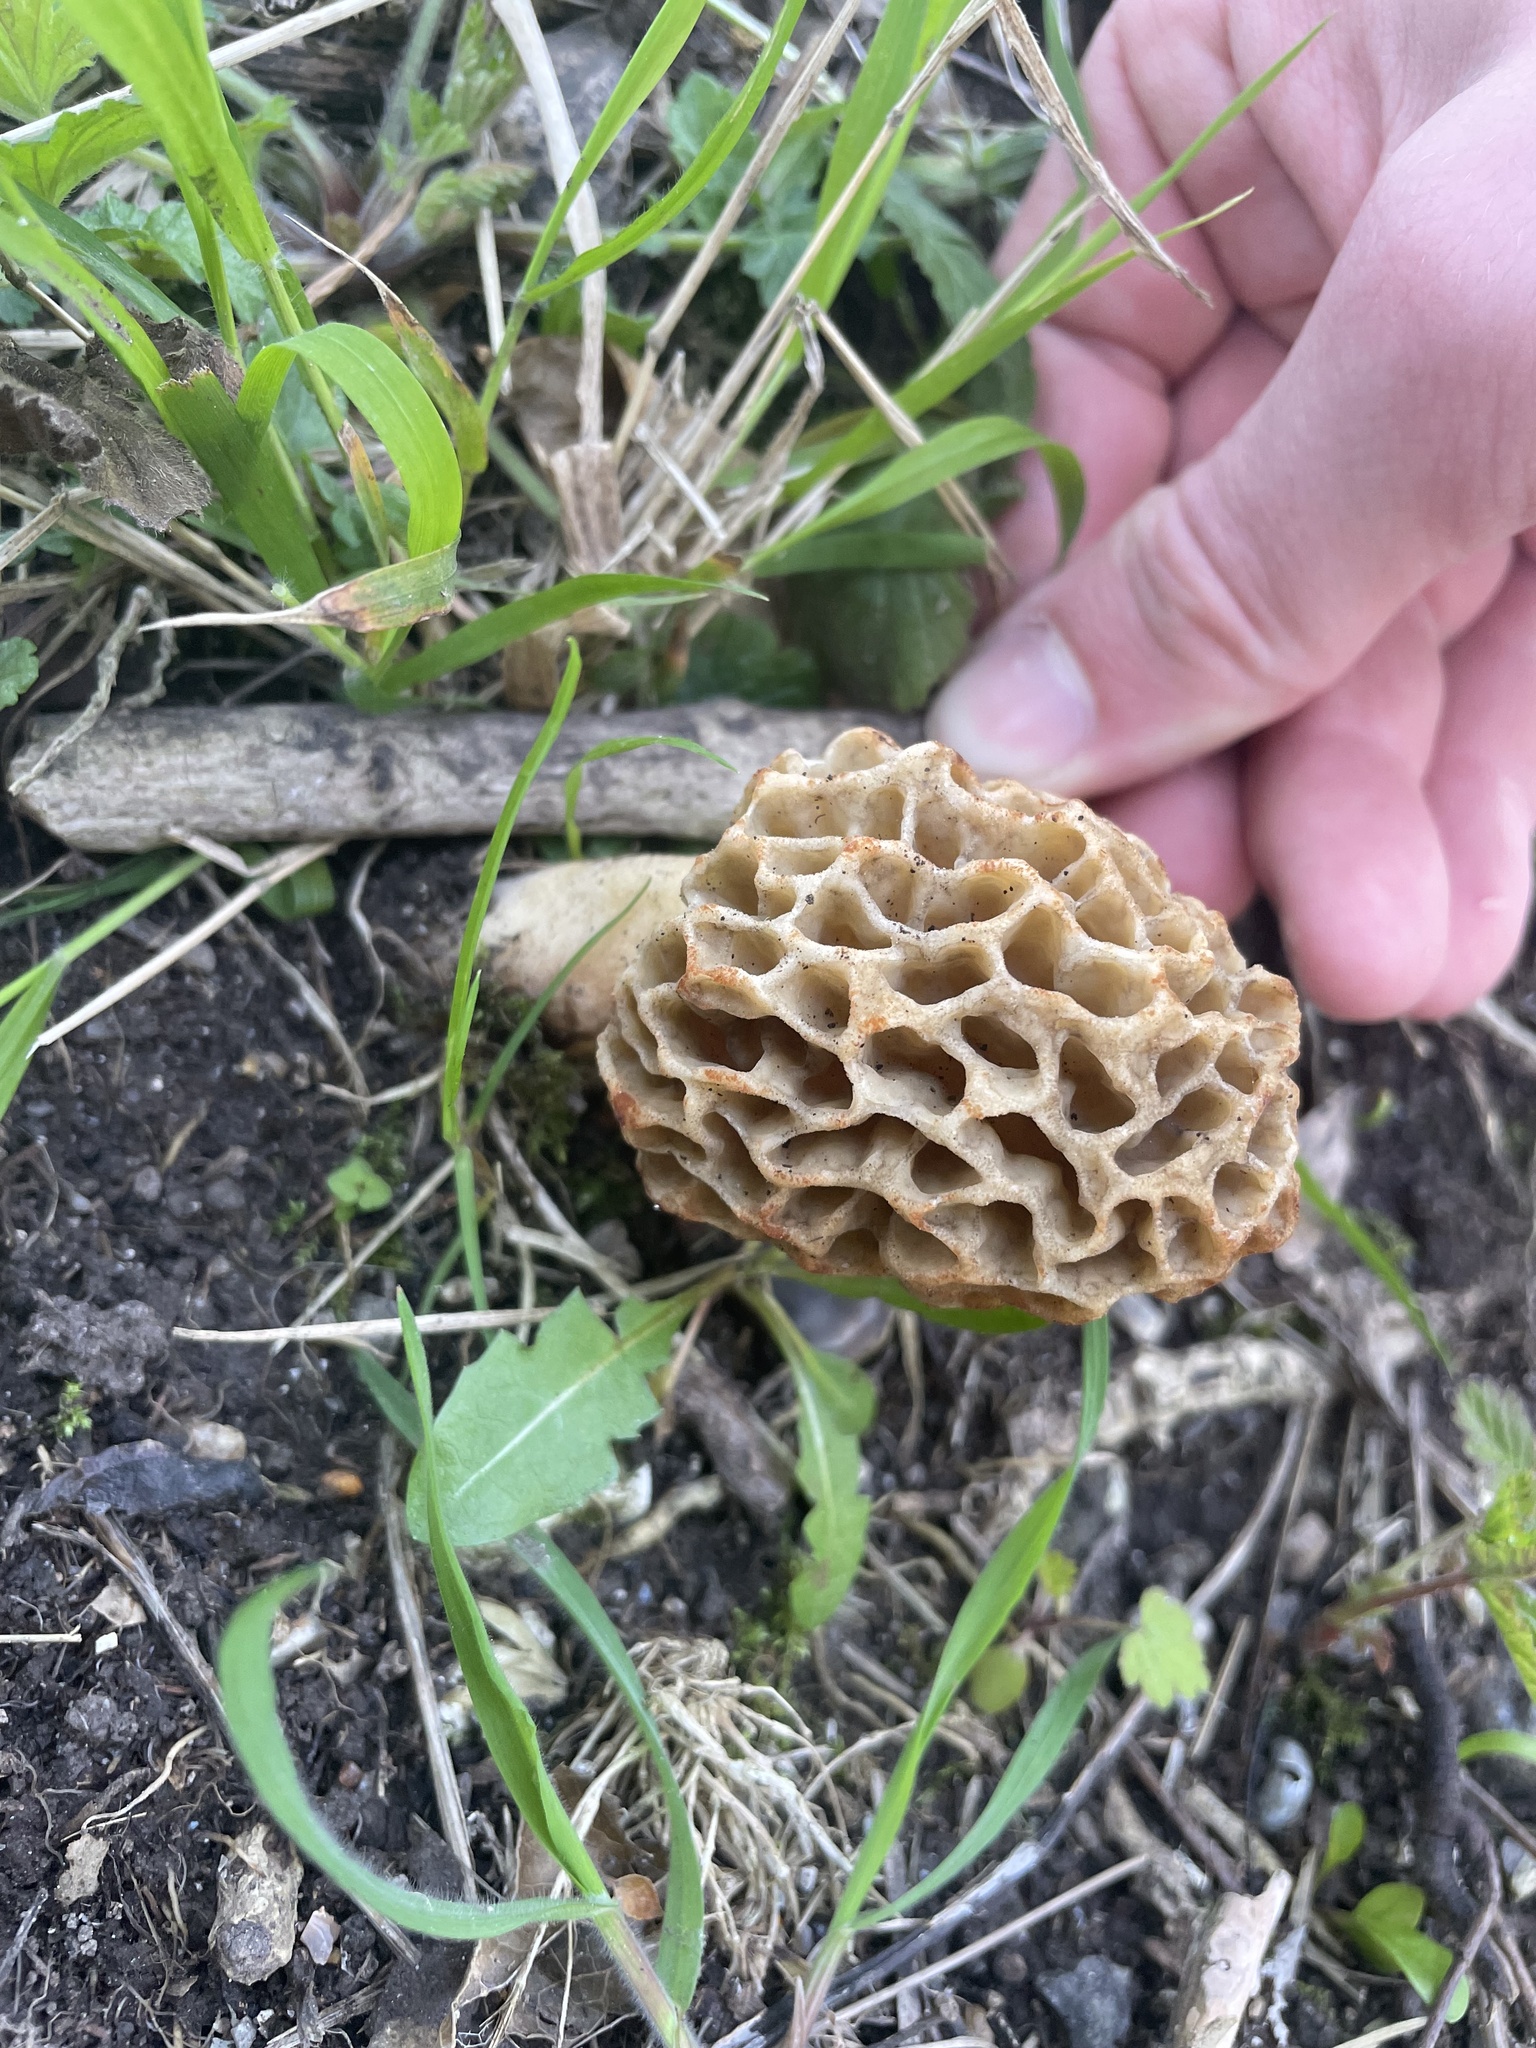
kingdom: Fungi
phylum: Ascomycota
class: Pezizomycetes
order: Pezizales
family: Morchellaceae
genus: Morchella
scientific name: Morchella
